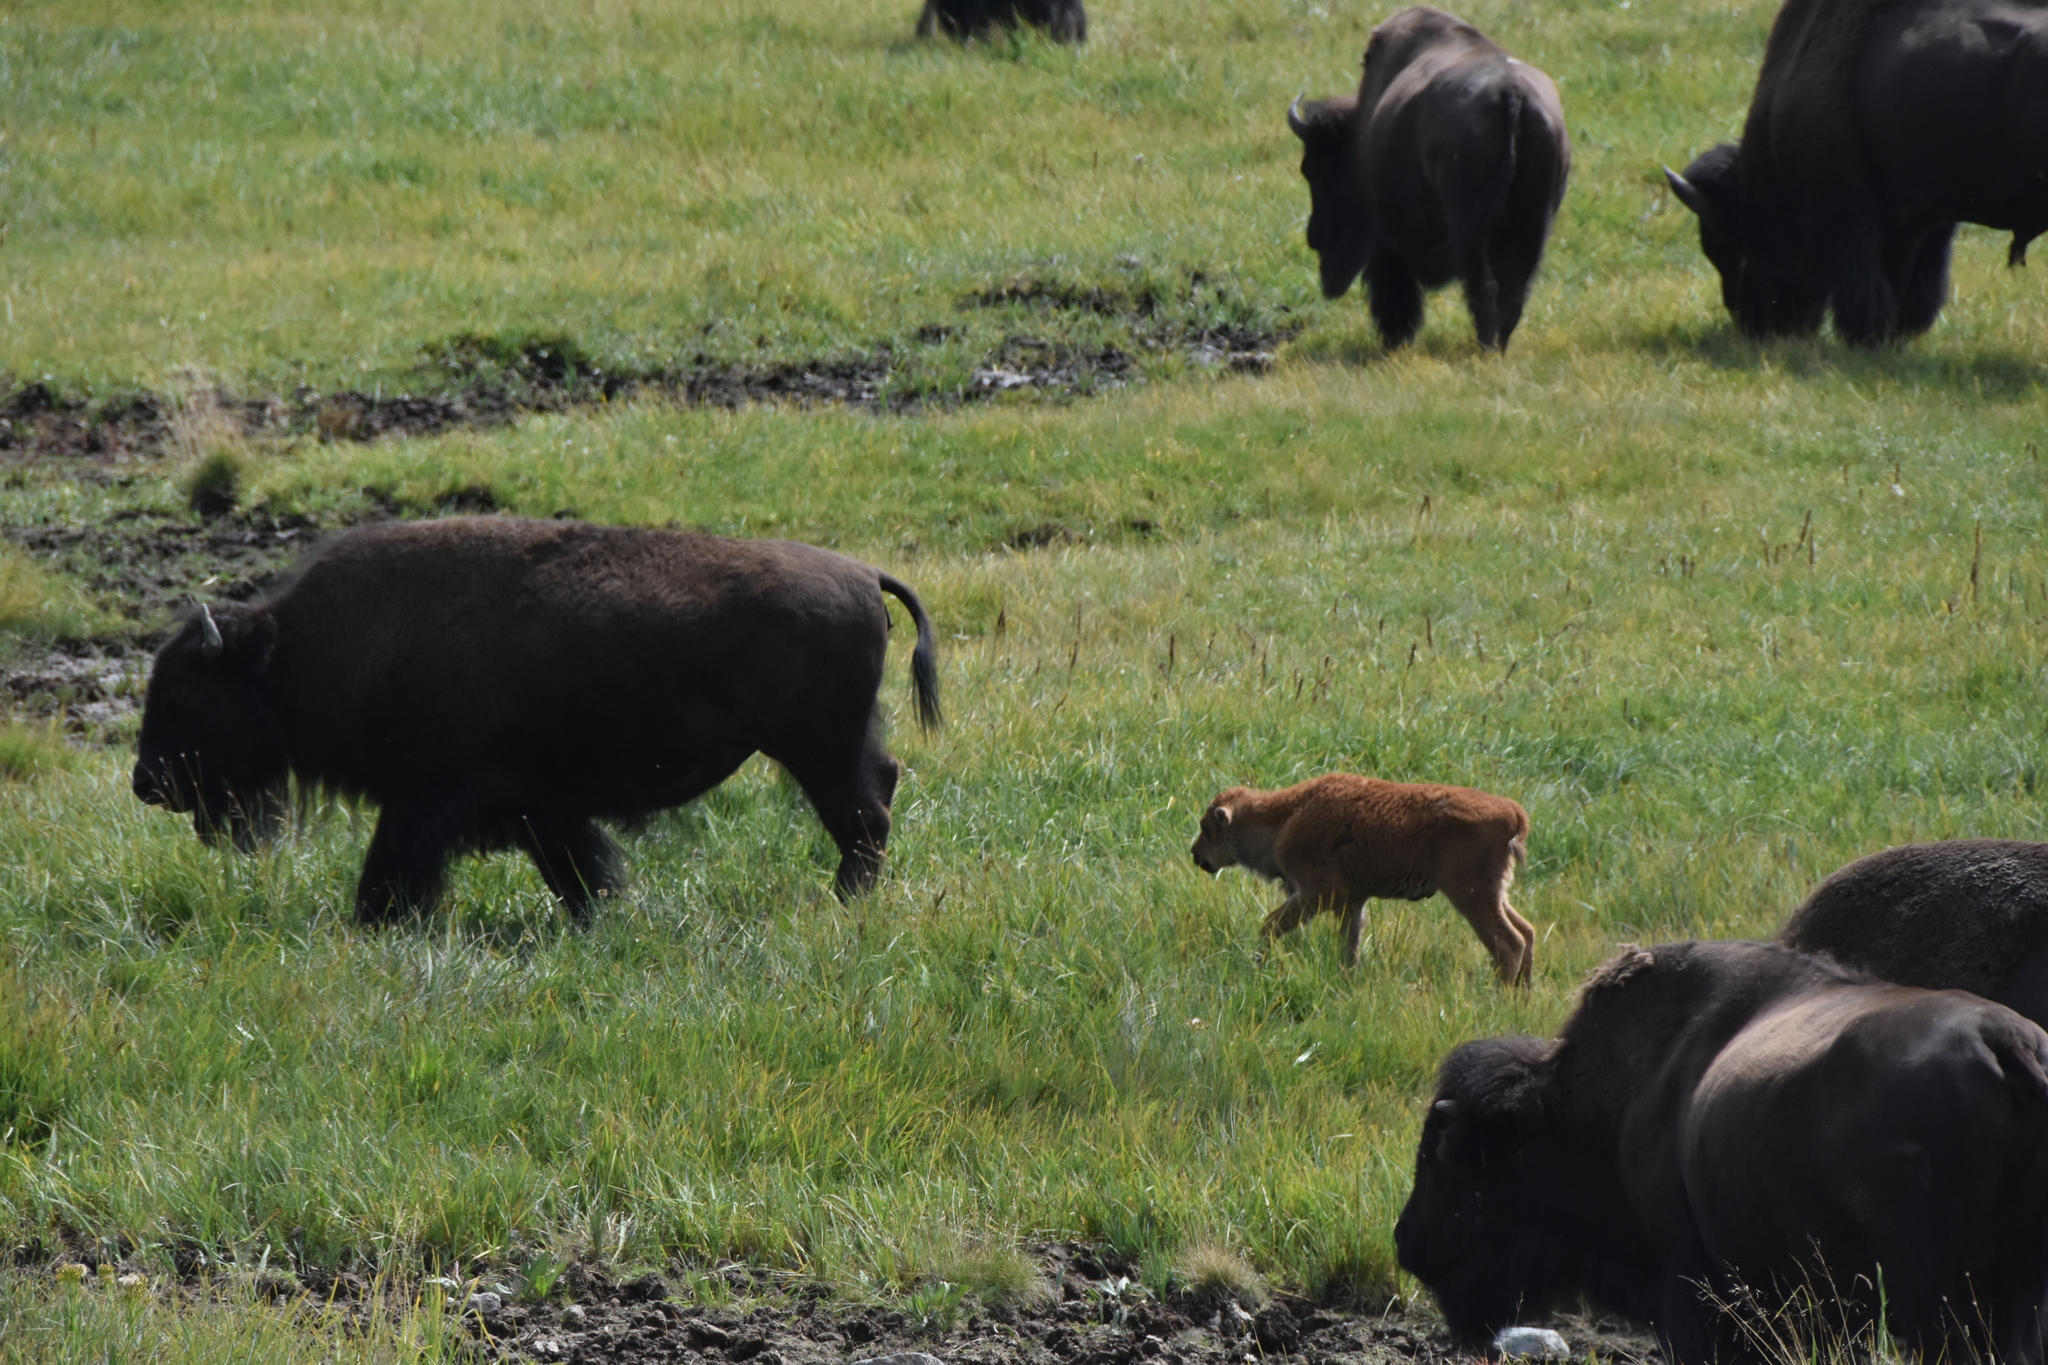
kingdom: Animalia
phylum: Chordata
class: Mammalia
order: Artiodactyla
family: Bovidae
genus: Bison
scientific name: Bison bison
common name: American bison
